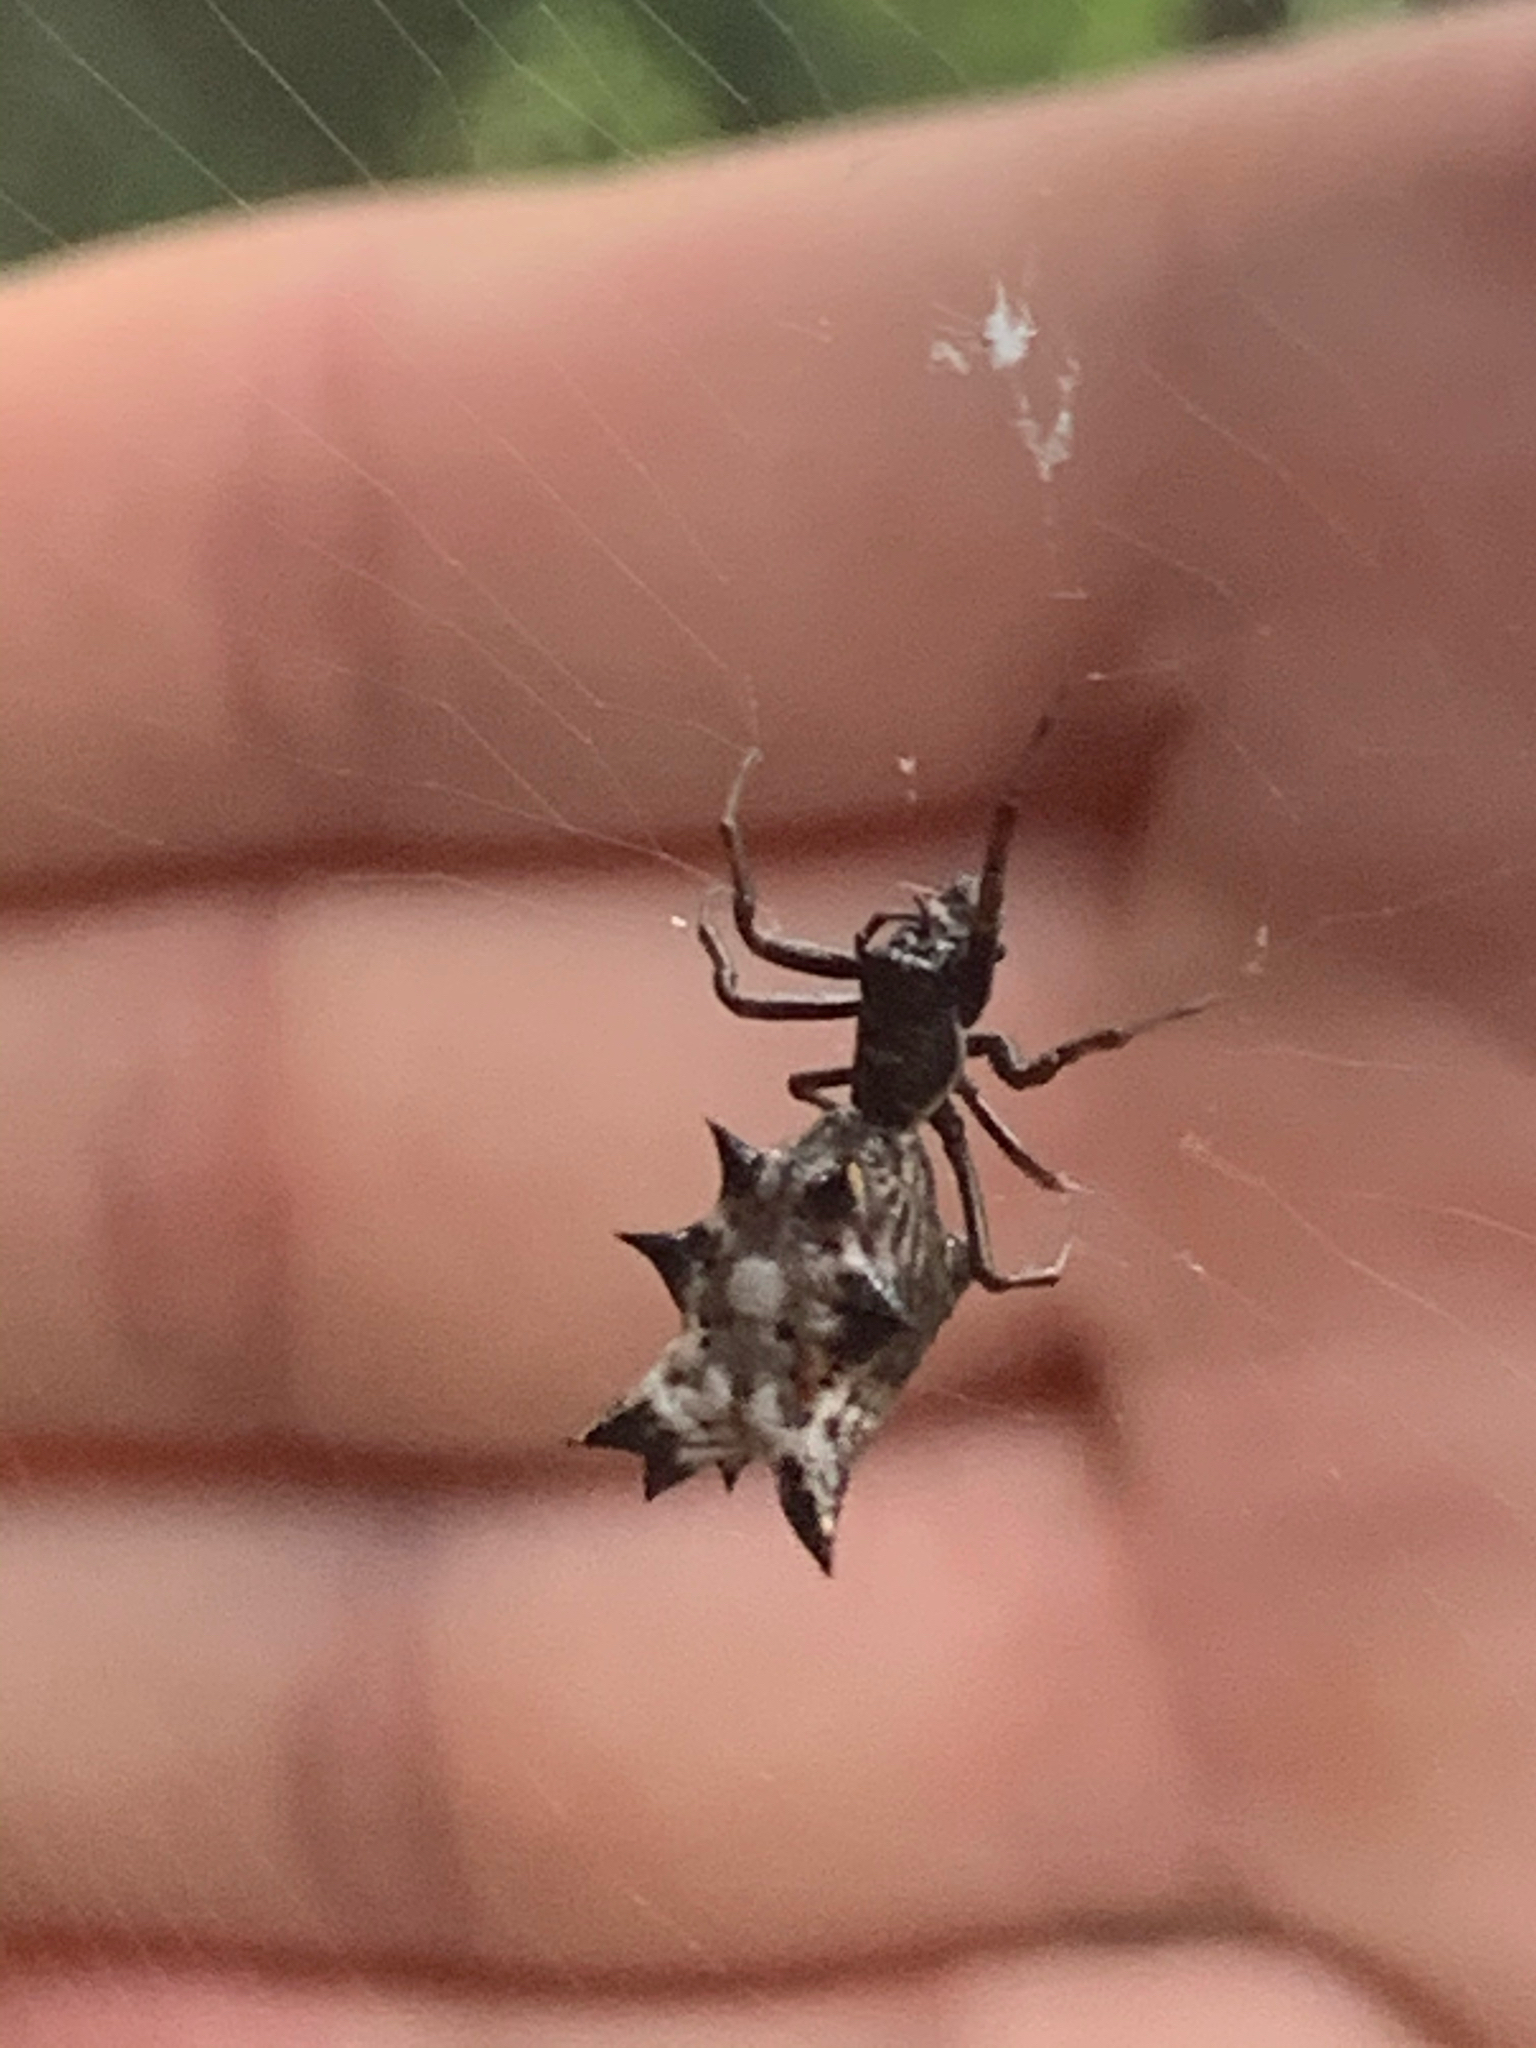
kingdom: Animalia
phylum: Arthropoda
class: Arachnida
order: Araneae
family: Araneidae
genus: Micrathena
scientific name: Micrathena gracilis
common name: Orb weavers
